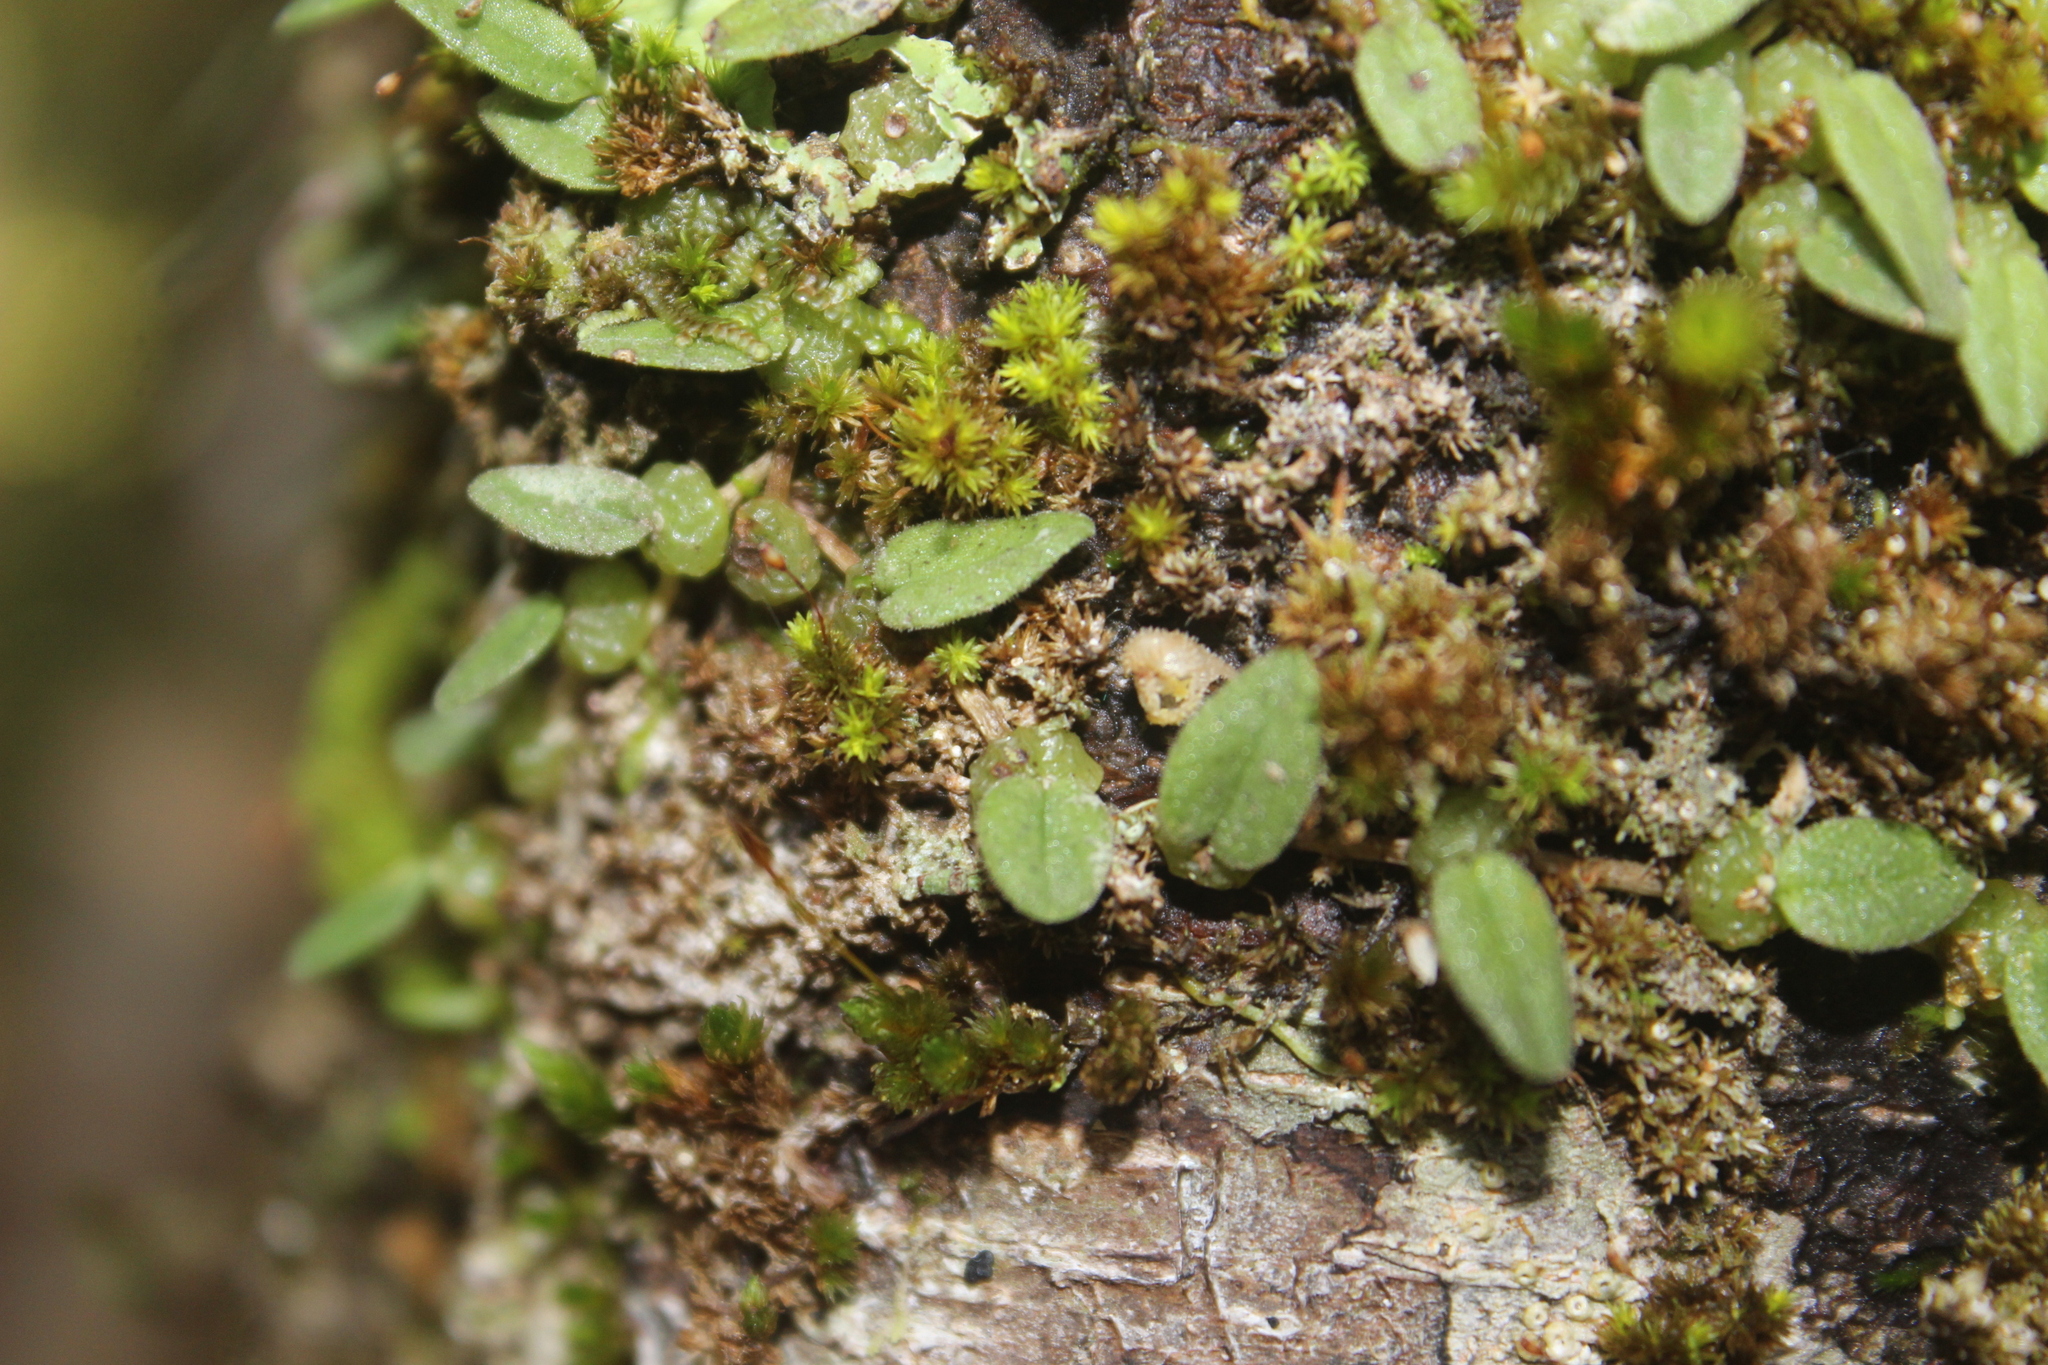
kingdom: Plantae
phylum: Tracheophyta
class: Liliopsida
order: Asparagales
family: Orchidaceae
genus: Bulbophyllum
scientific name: Bulbophyllum pygmaeum
